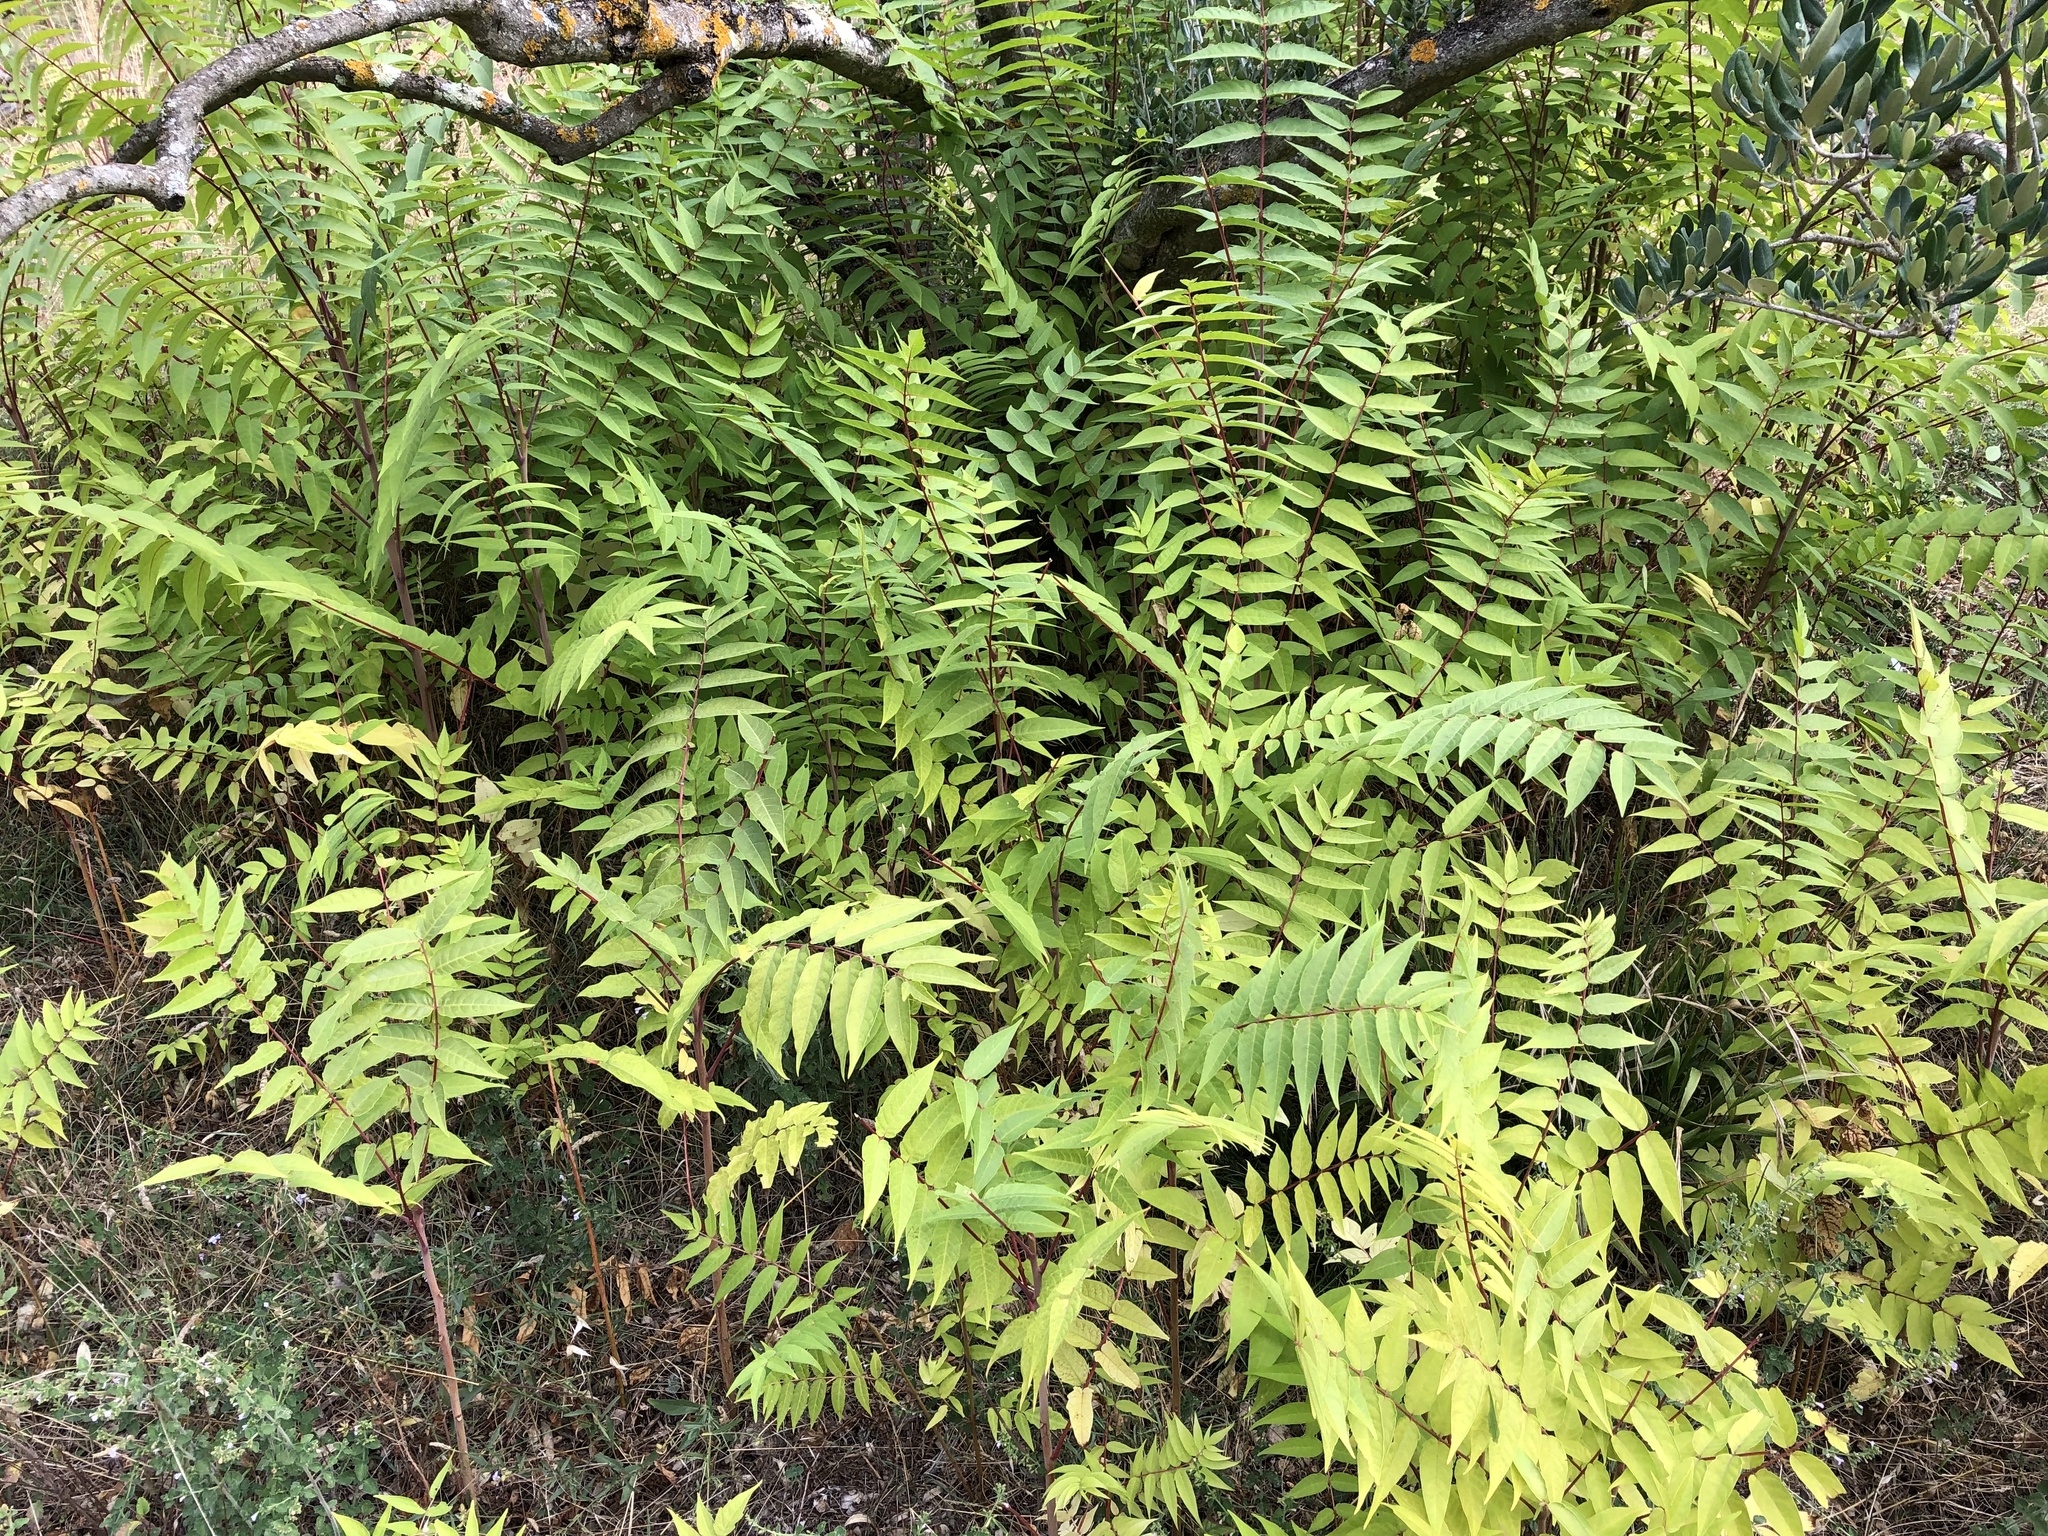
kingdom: Plantae
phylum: Tracheophyta
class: Magnoliopsida
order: Sapindales
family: Simaroubaceae
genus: Ailanthus
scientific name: Ailanthus altissima
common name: Tree-of-heaven
